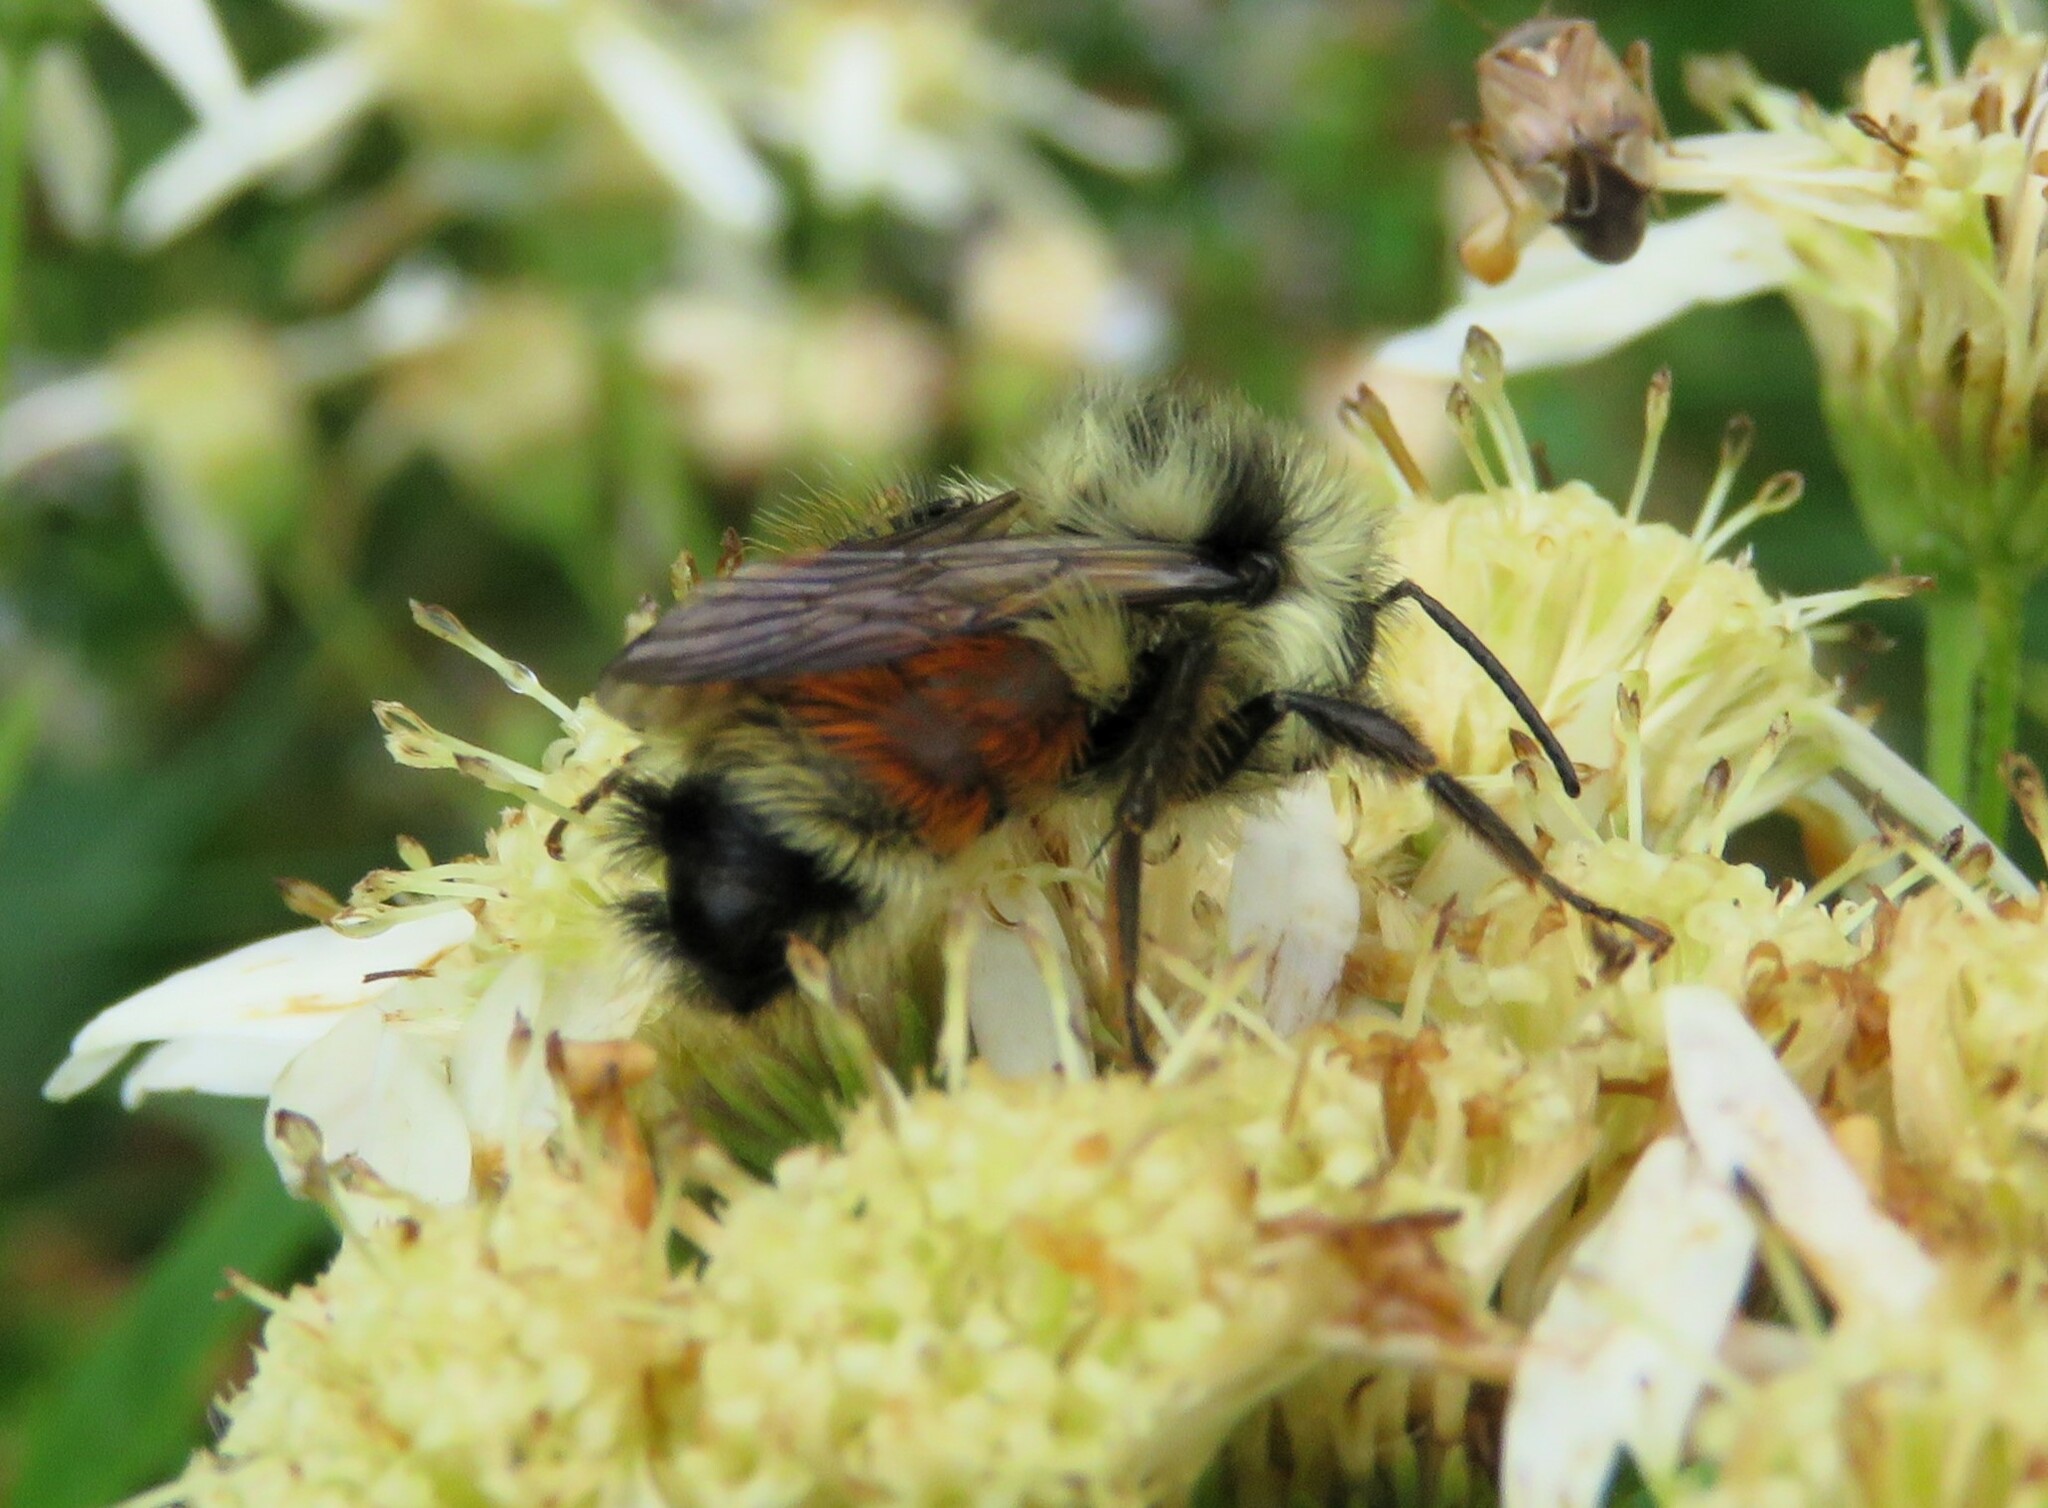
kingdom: Animalia
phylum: Arthropoda
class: Insecta
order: Hymenoptera
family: Apidae
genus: Bombus
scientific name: Bombus ternarius
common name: Tri-colored bumble bee
